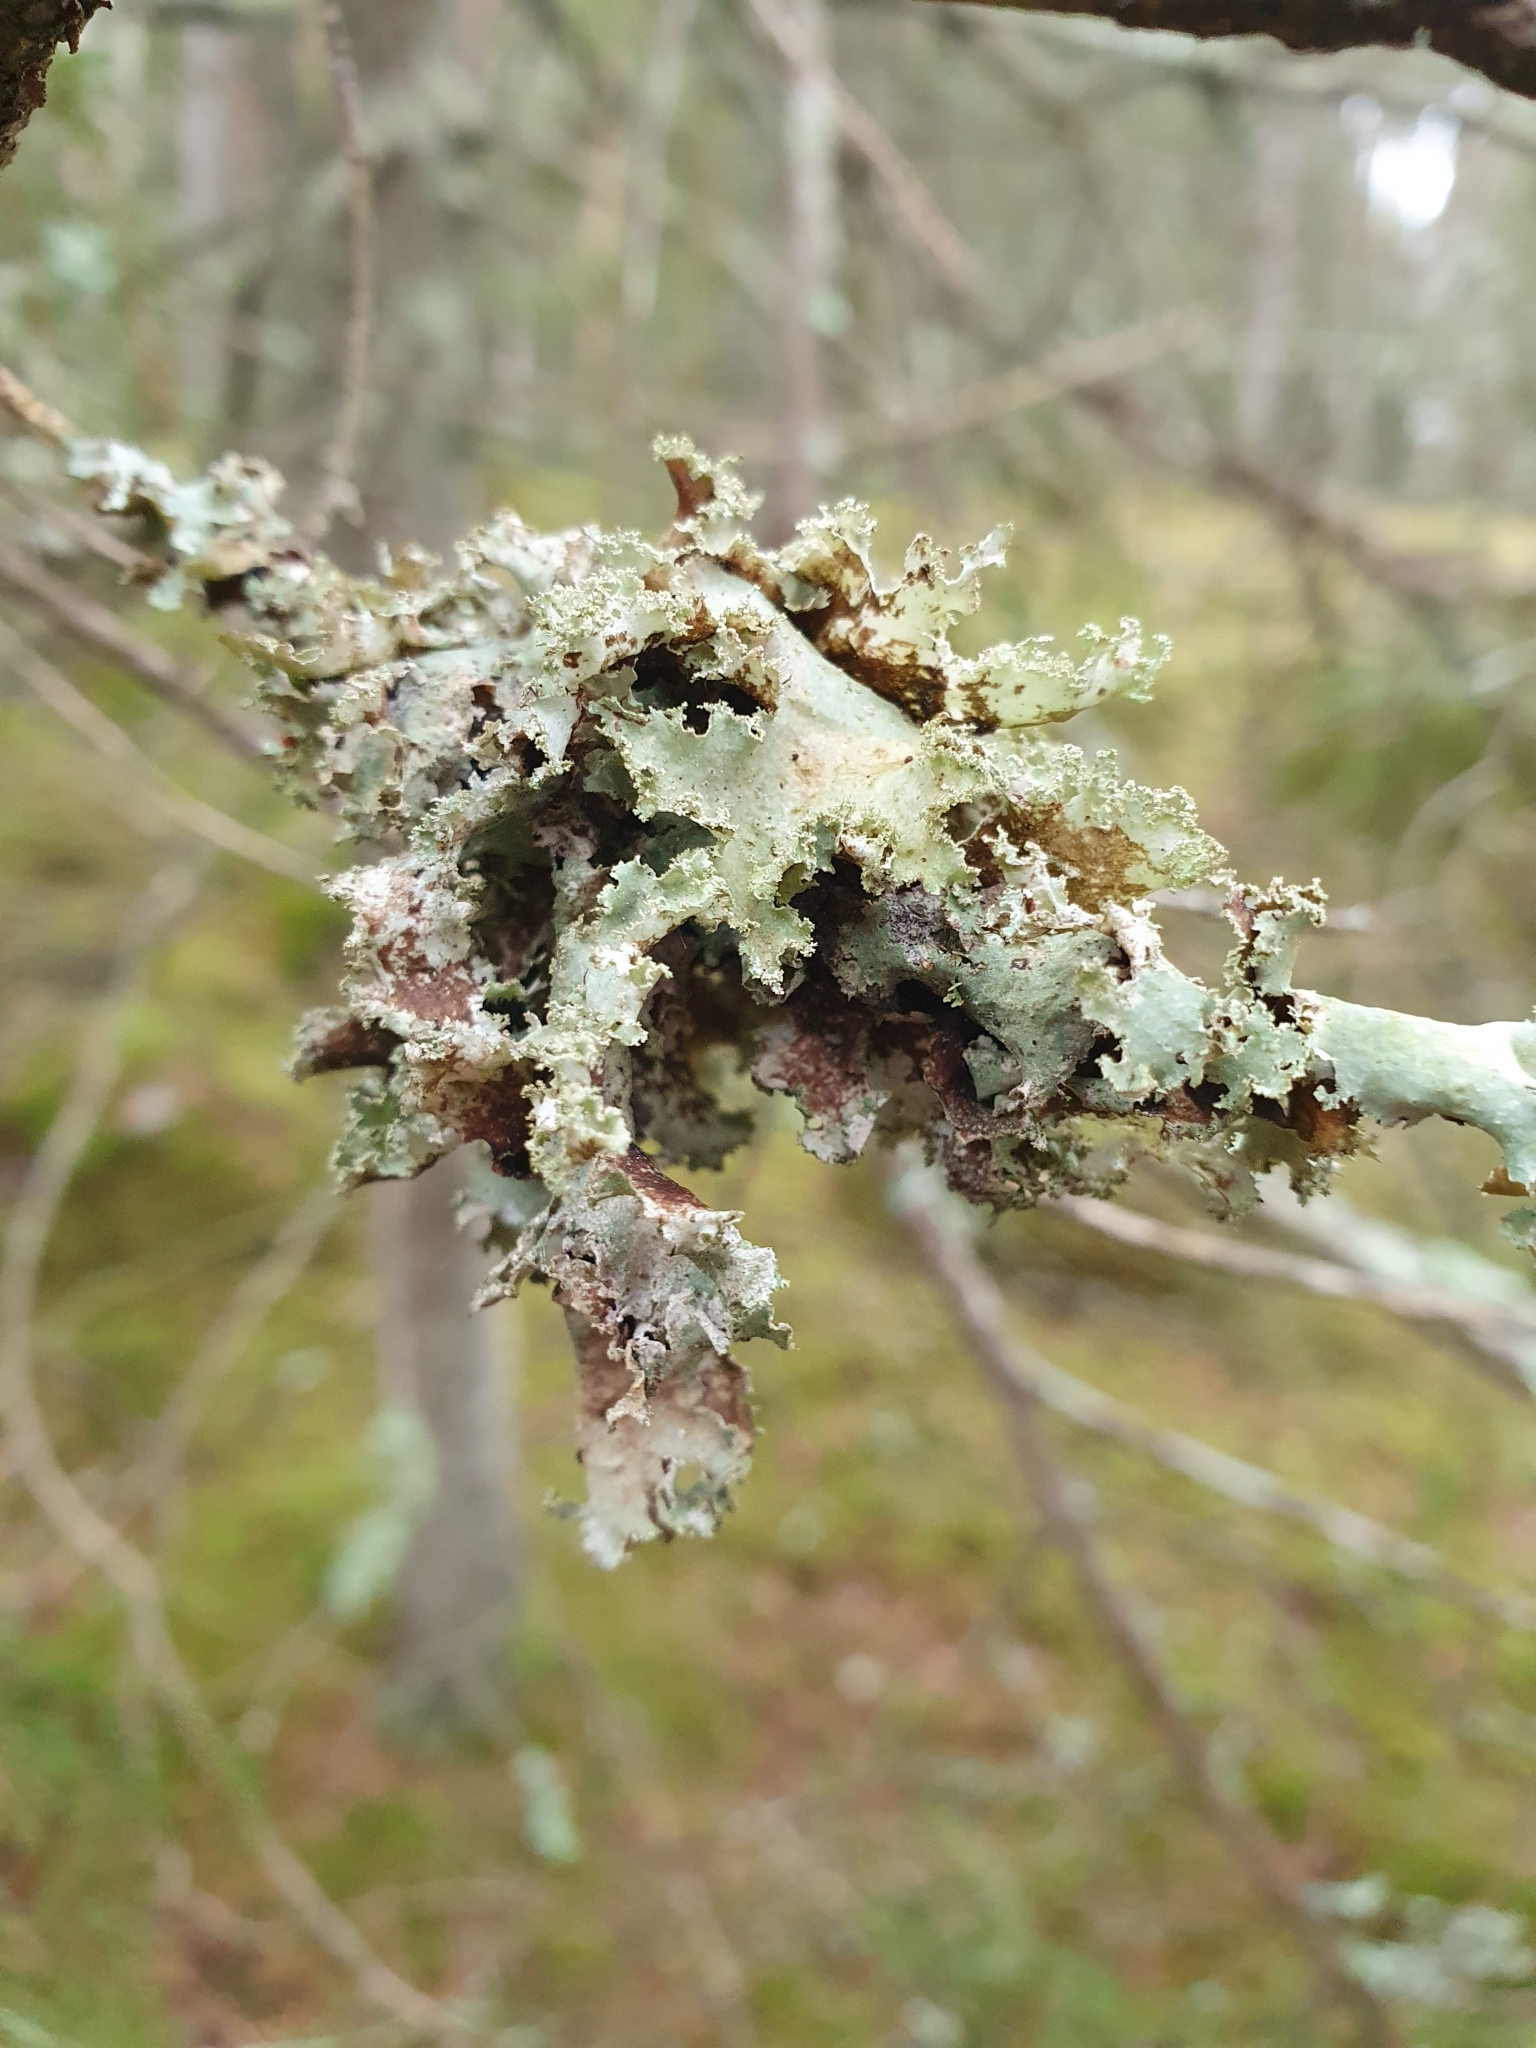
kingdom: Fungi
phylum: Ascomycota
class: Lecanoromycetes
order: Lecanorales
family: Parmeliaceae
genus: Platismatia
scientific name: Platismatia glauca
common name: Varied rag lichen
